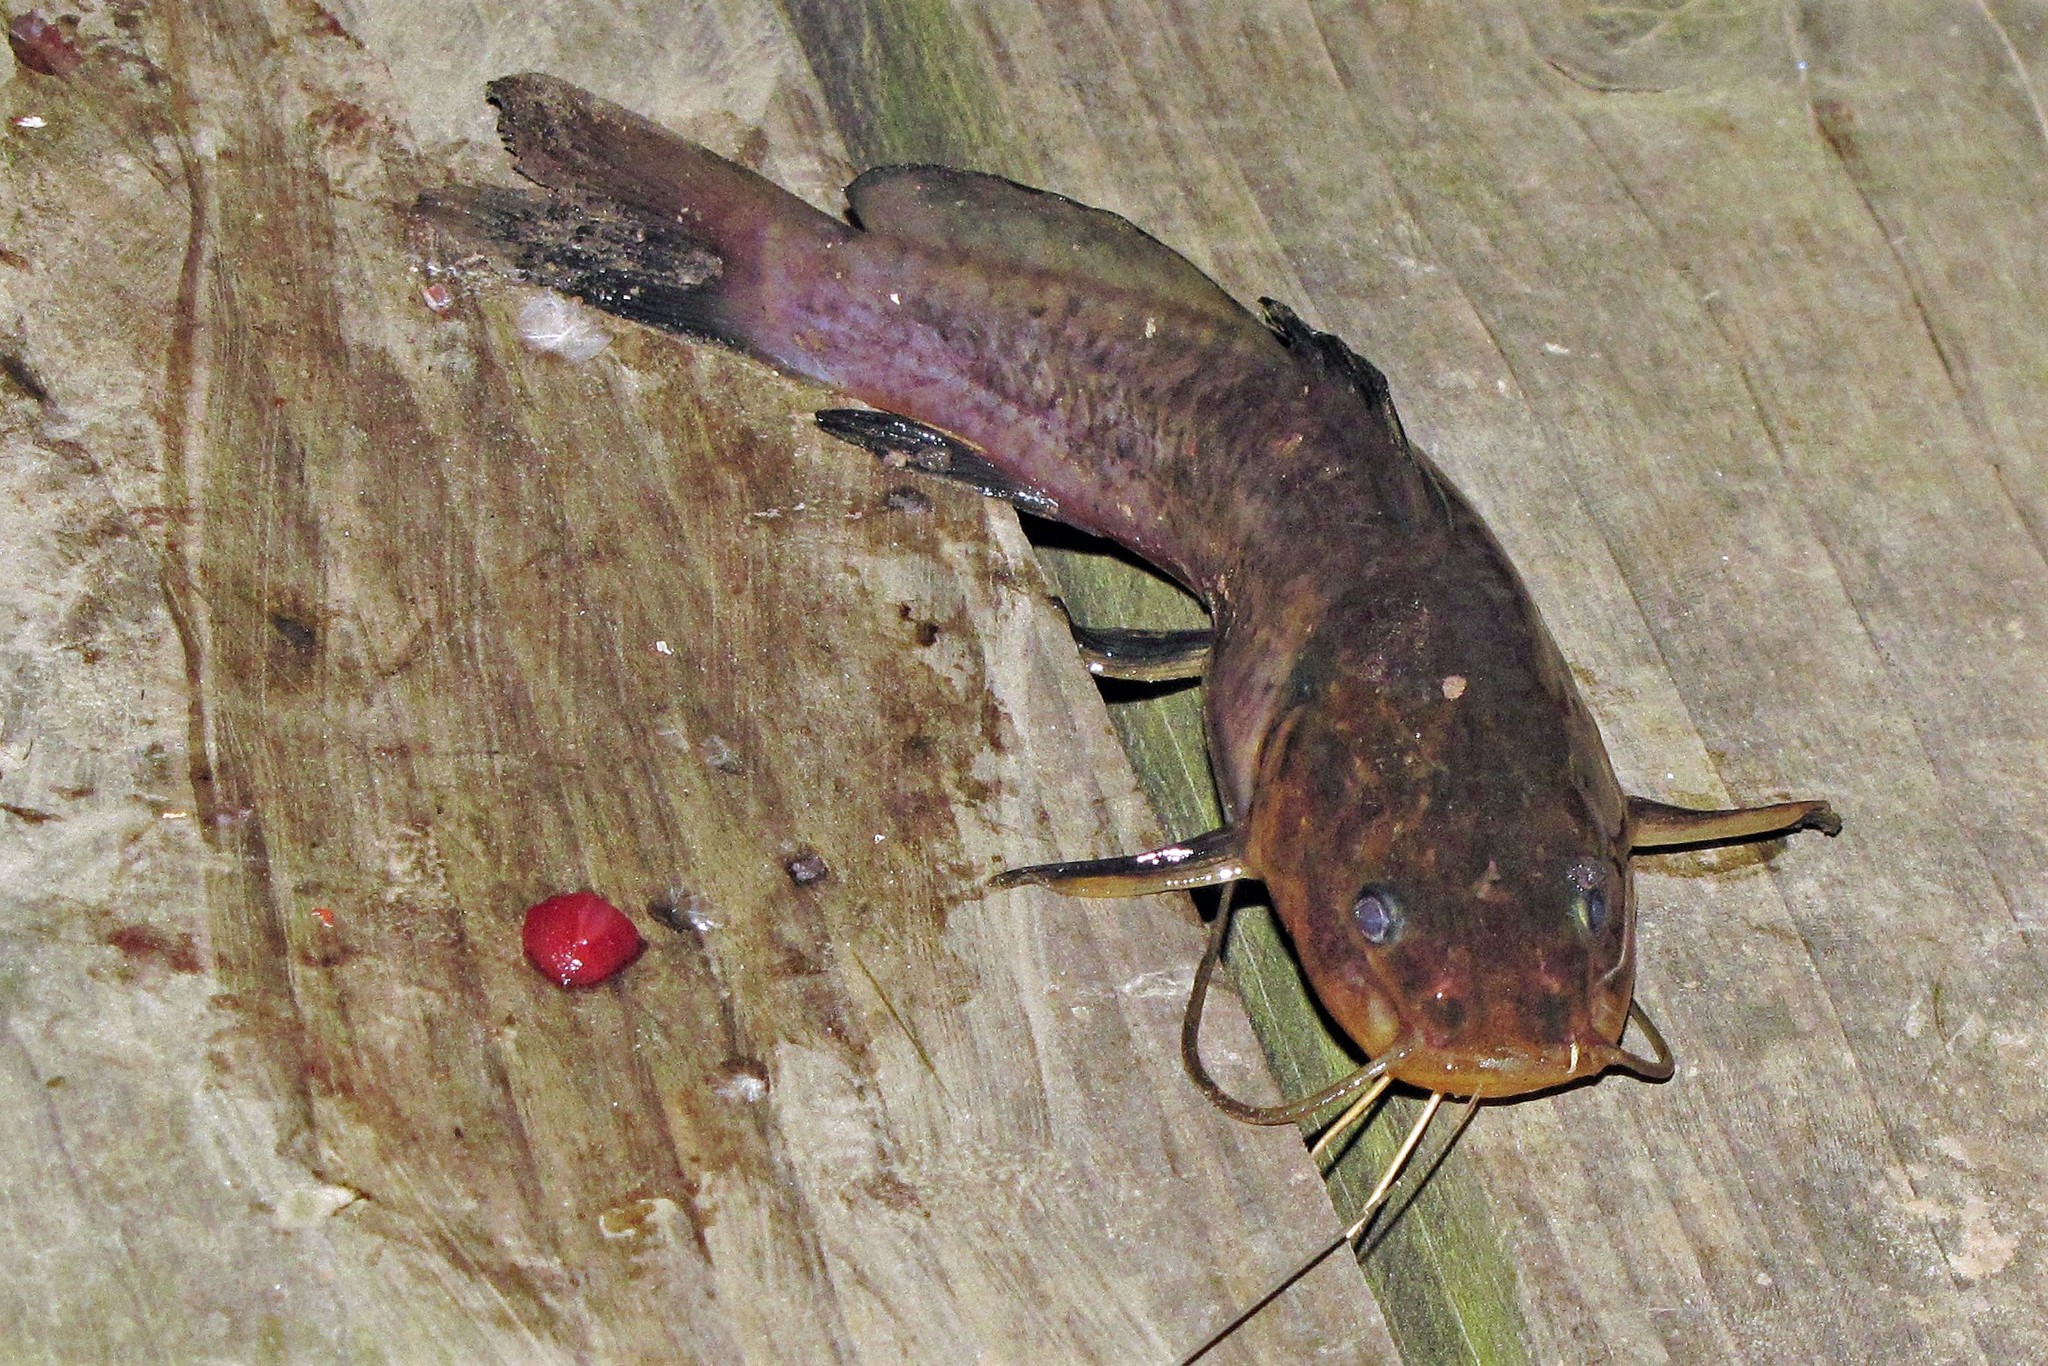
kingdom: Animalia
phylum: Chordata
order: Siluriformes
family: Heptapteridae
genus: Rhamdia
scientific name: Rhamdia quelen
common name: Catfish
